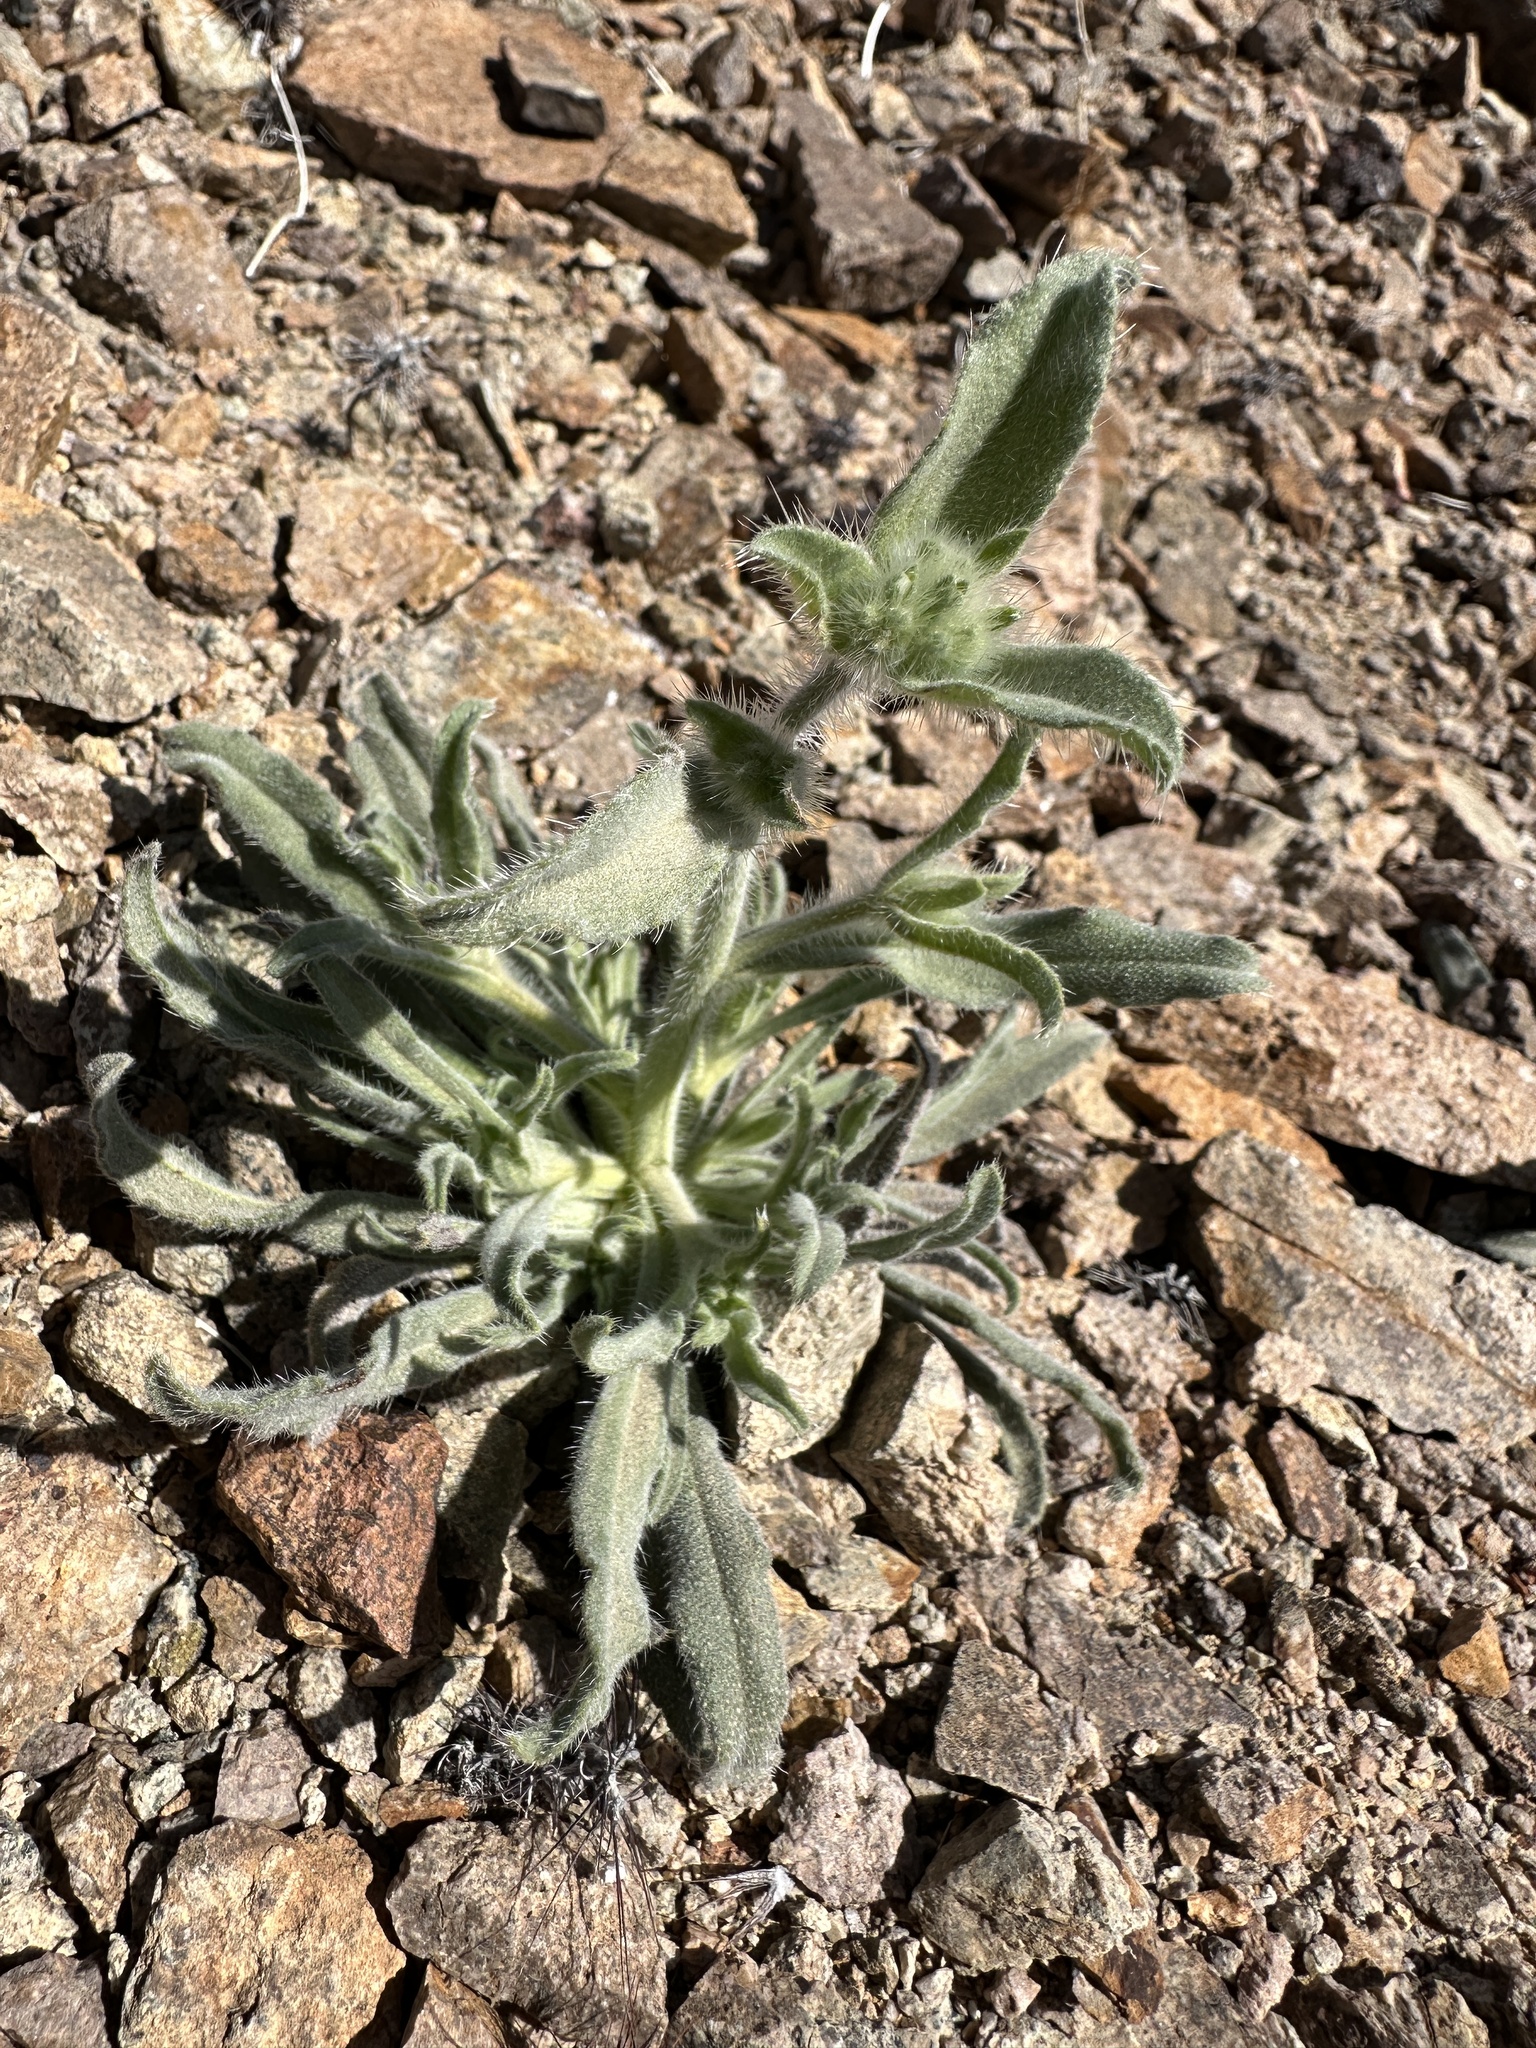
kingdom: Plantae
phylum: Tracheophyta
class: Magnoliopsida
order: Boraginales
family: Boraginaceae
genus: Simpsonanthus
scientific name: Simpsonanthus jonesii
